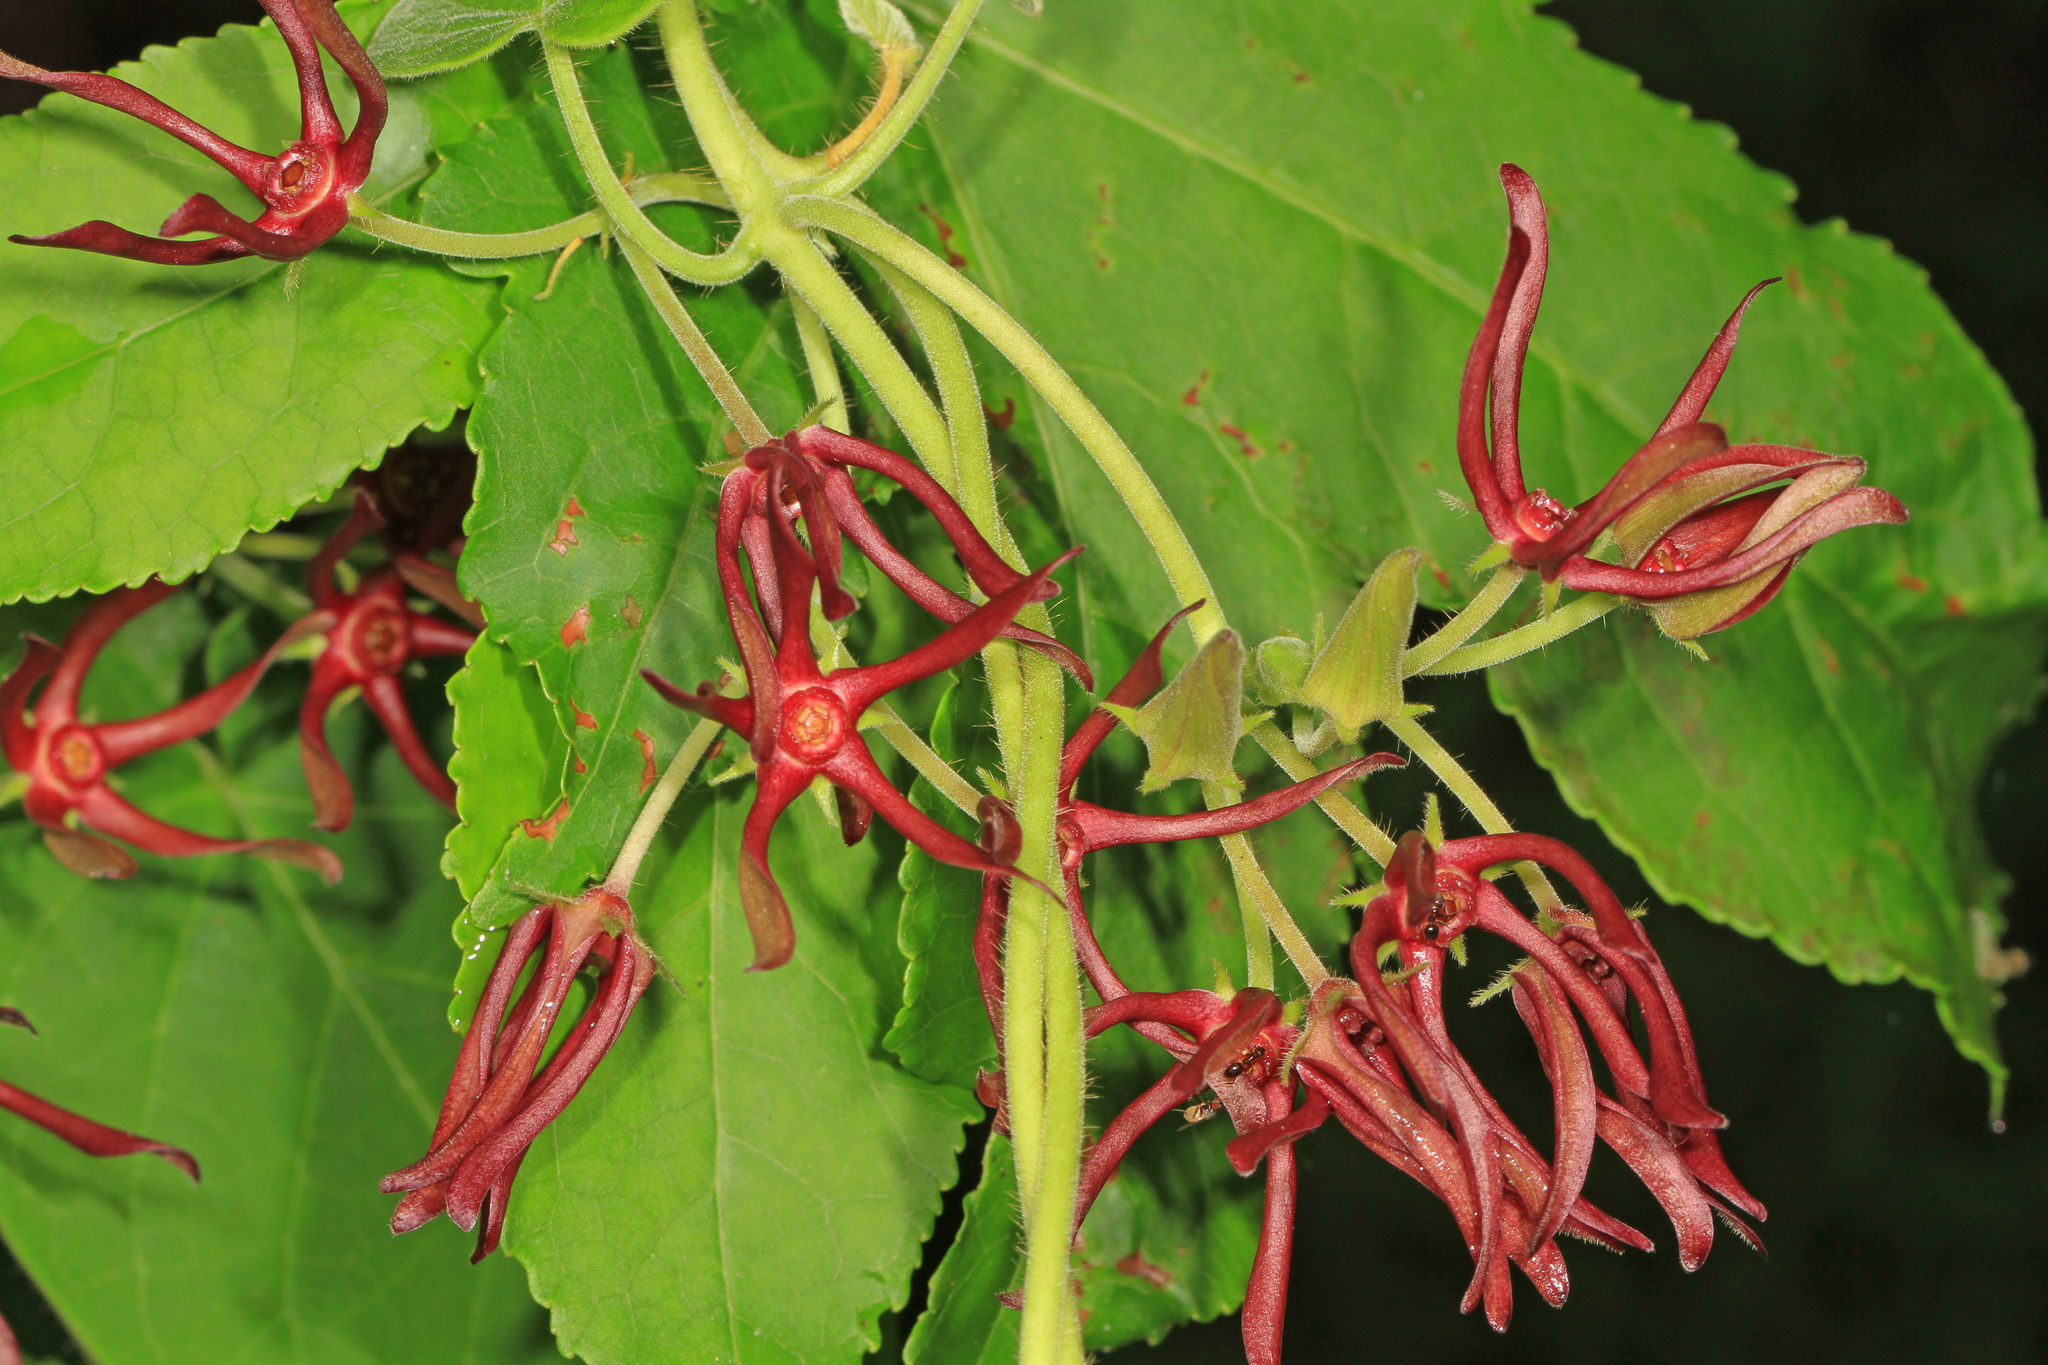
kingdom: Plantae
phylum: Tracheophyta
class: Magnoliopsida
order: Gentianales
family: Apocynaceae
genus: Matelea
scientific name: Matelea obliqua
